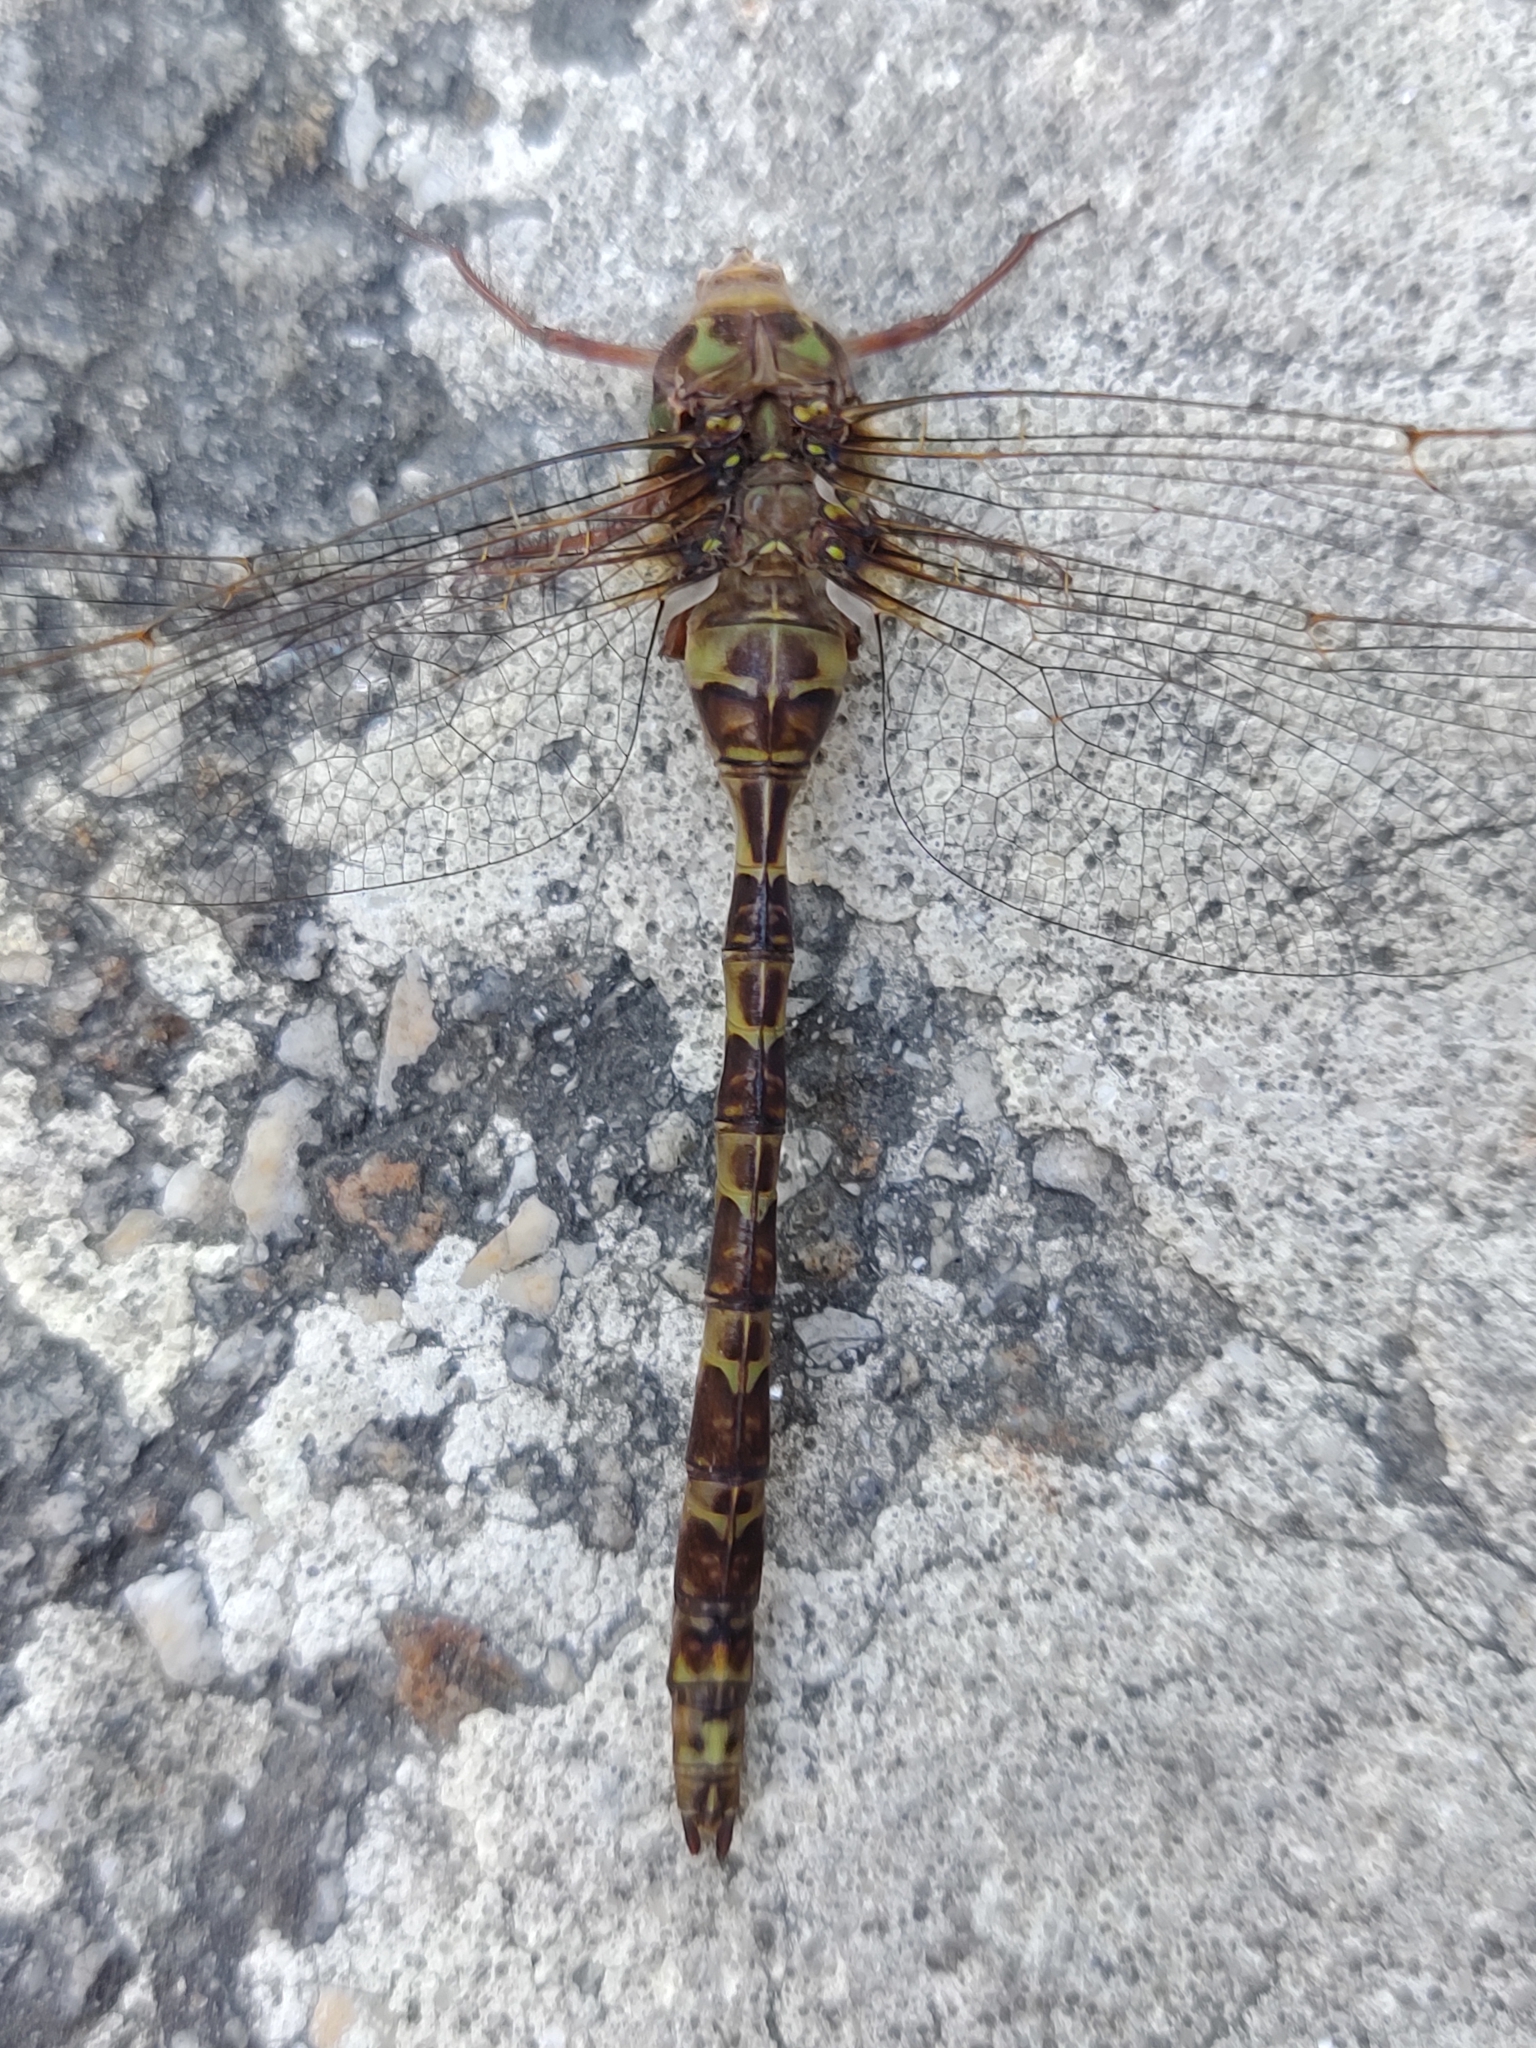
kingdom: Animalia
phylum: Arthropoda
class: Insecta
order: Odonata
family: Aeshnidae
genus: Boyeria
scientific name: Boyeria irene
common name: Western spectre
